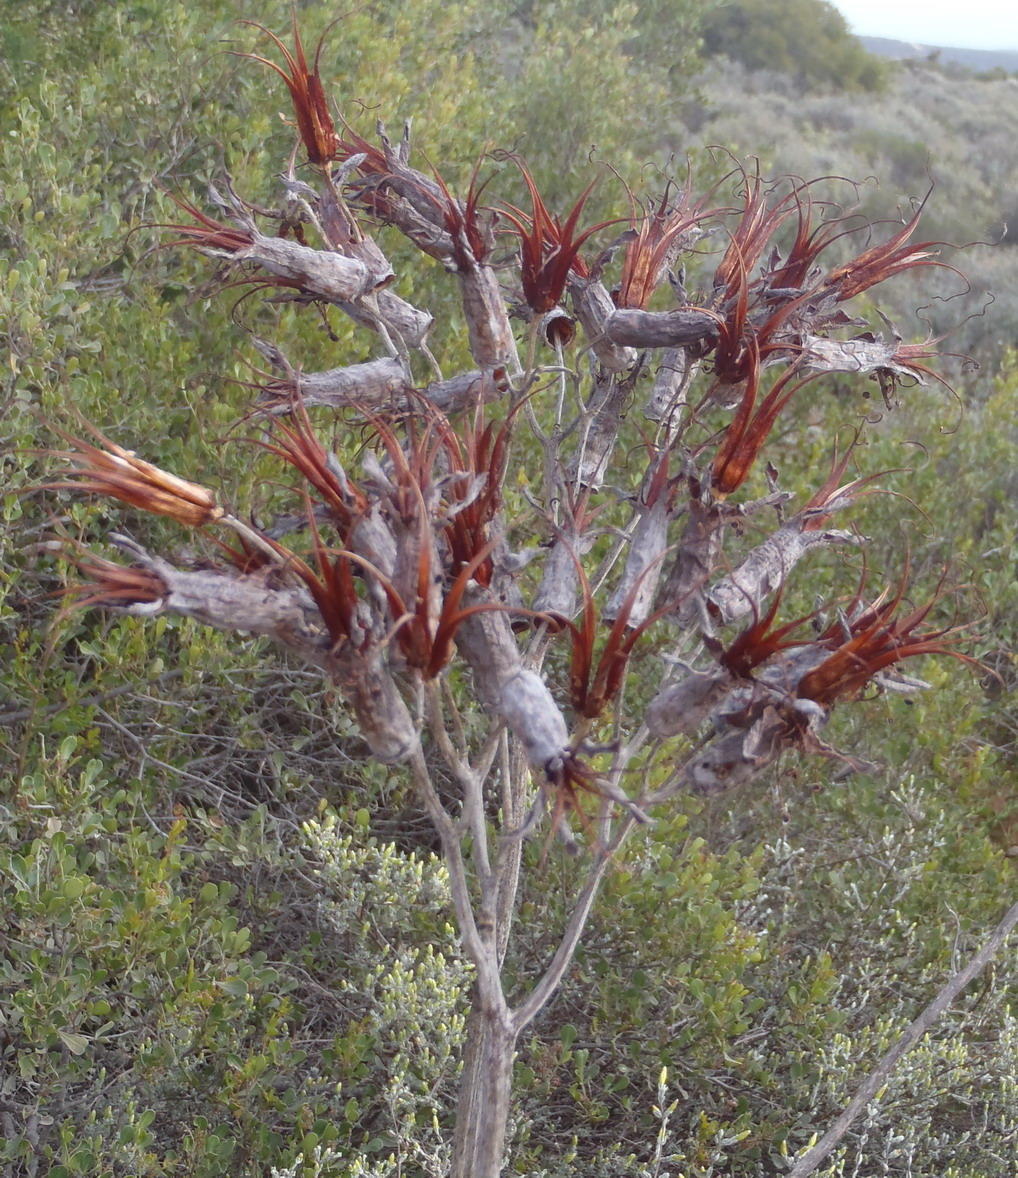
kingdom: Plantae
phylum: Tracheophyta
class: Magnoliopsida
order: Saxifragales
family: Crassulaceae
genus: Cotyledon
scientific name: Cotyledon orbiculata
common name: Pig's ear
